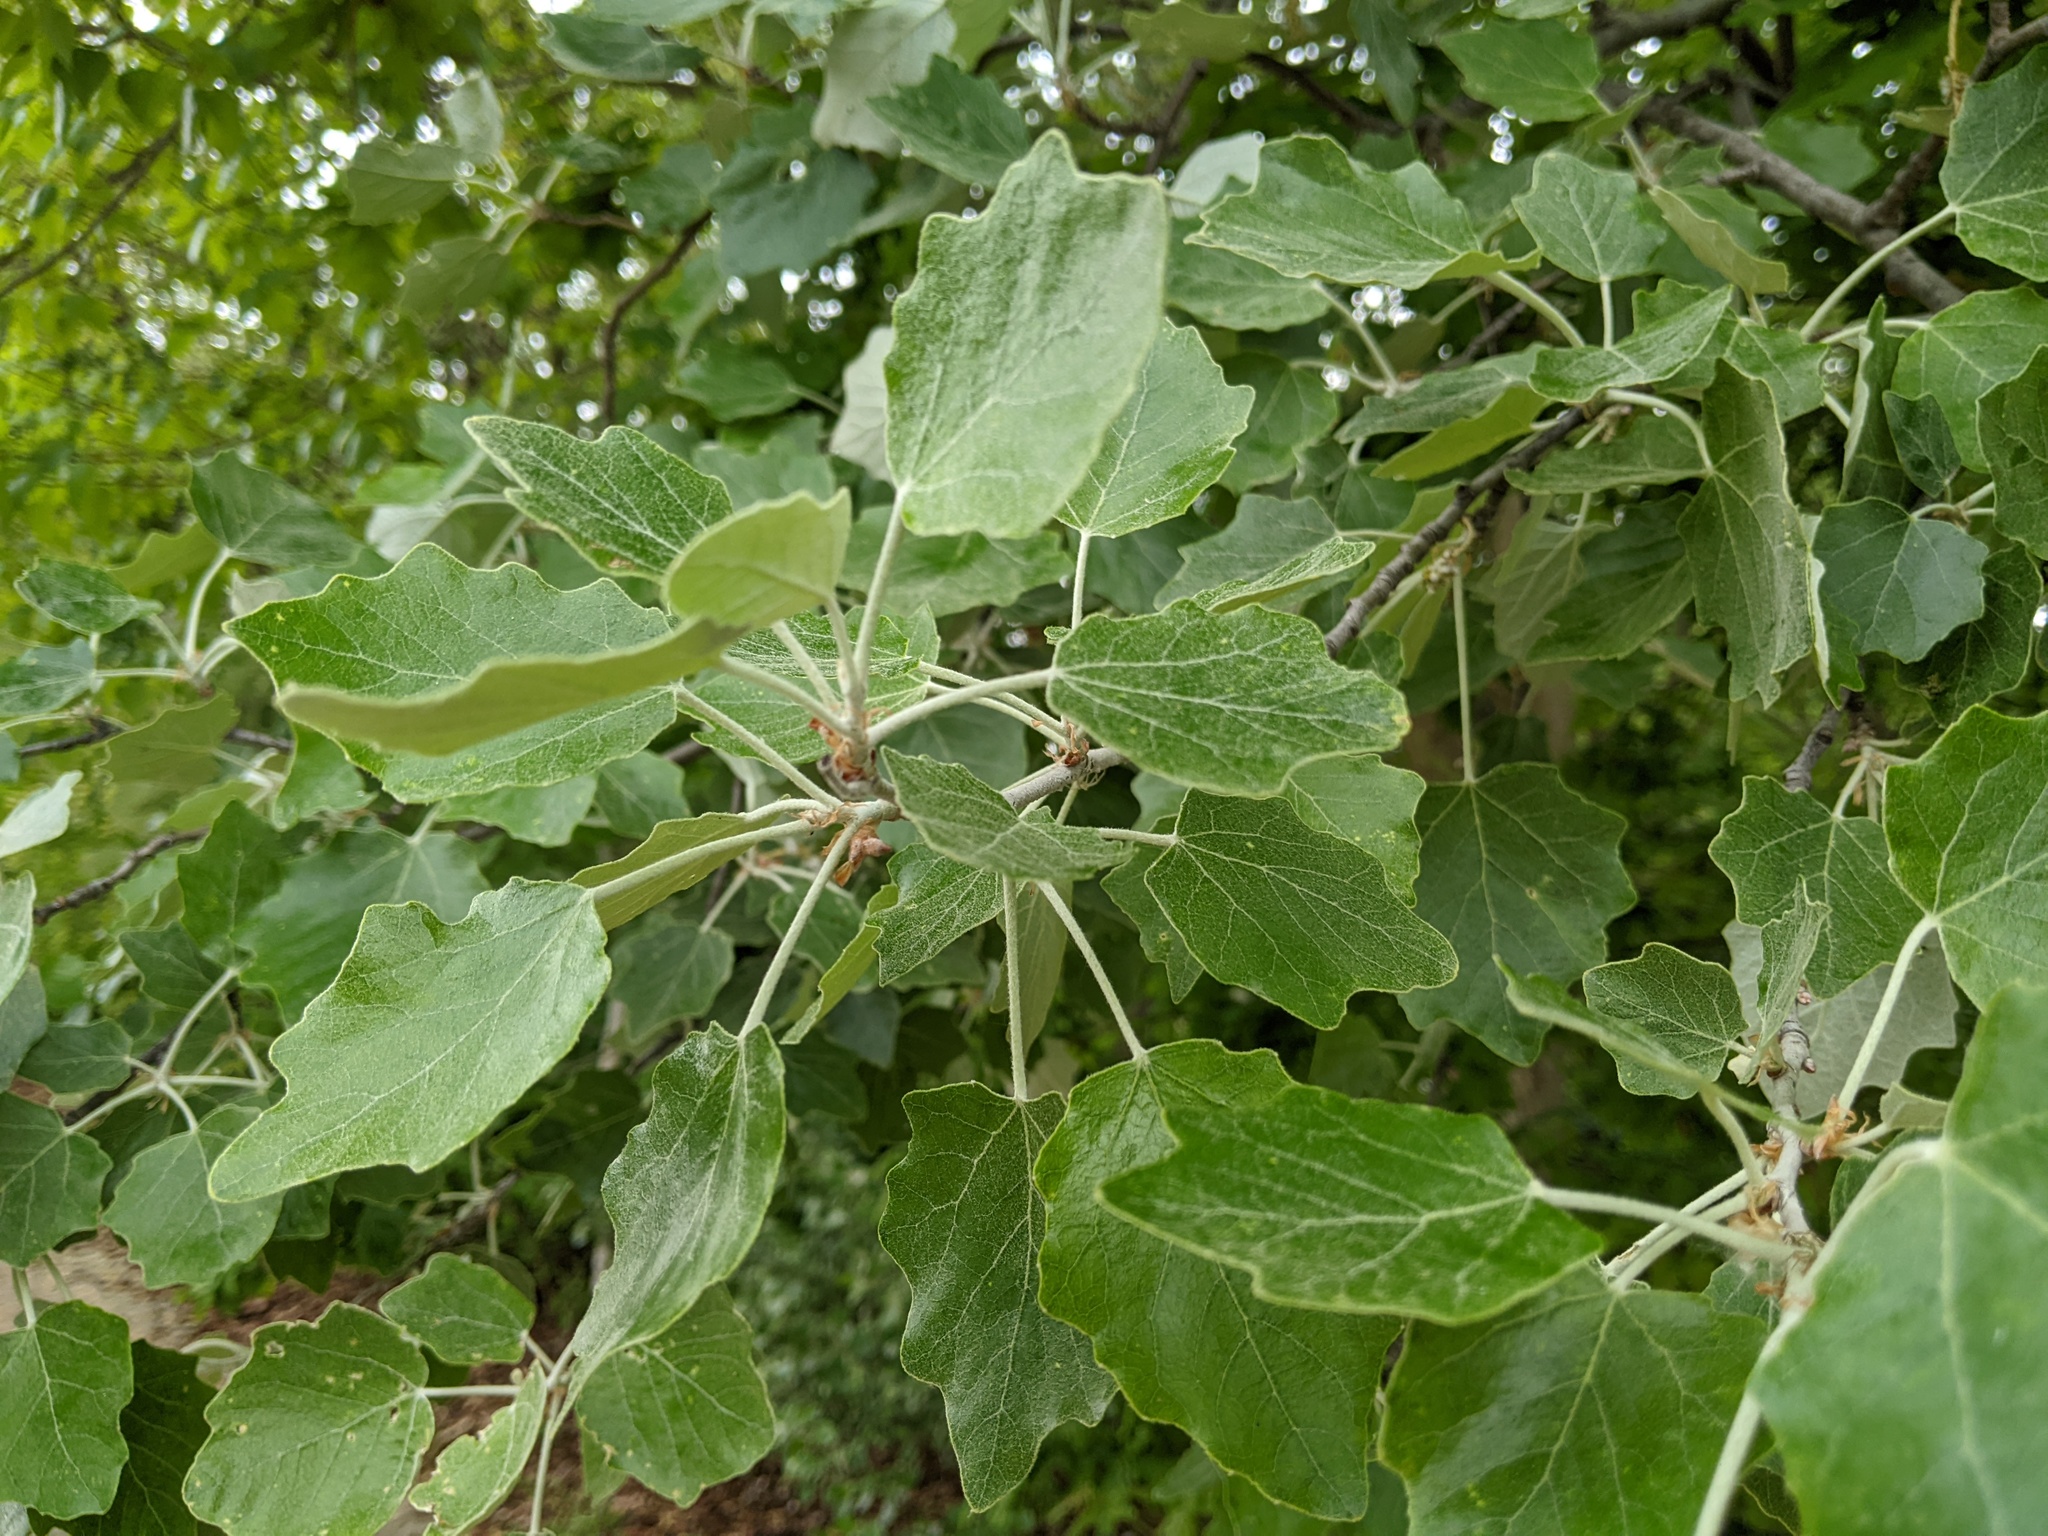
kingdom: Plantae
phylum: Tracheophyta
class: Magnoliopsida
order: Malpighiales
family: Salicaceae
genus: Populus
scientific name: Populus alba
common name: White poplar
